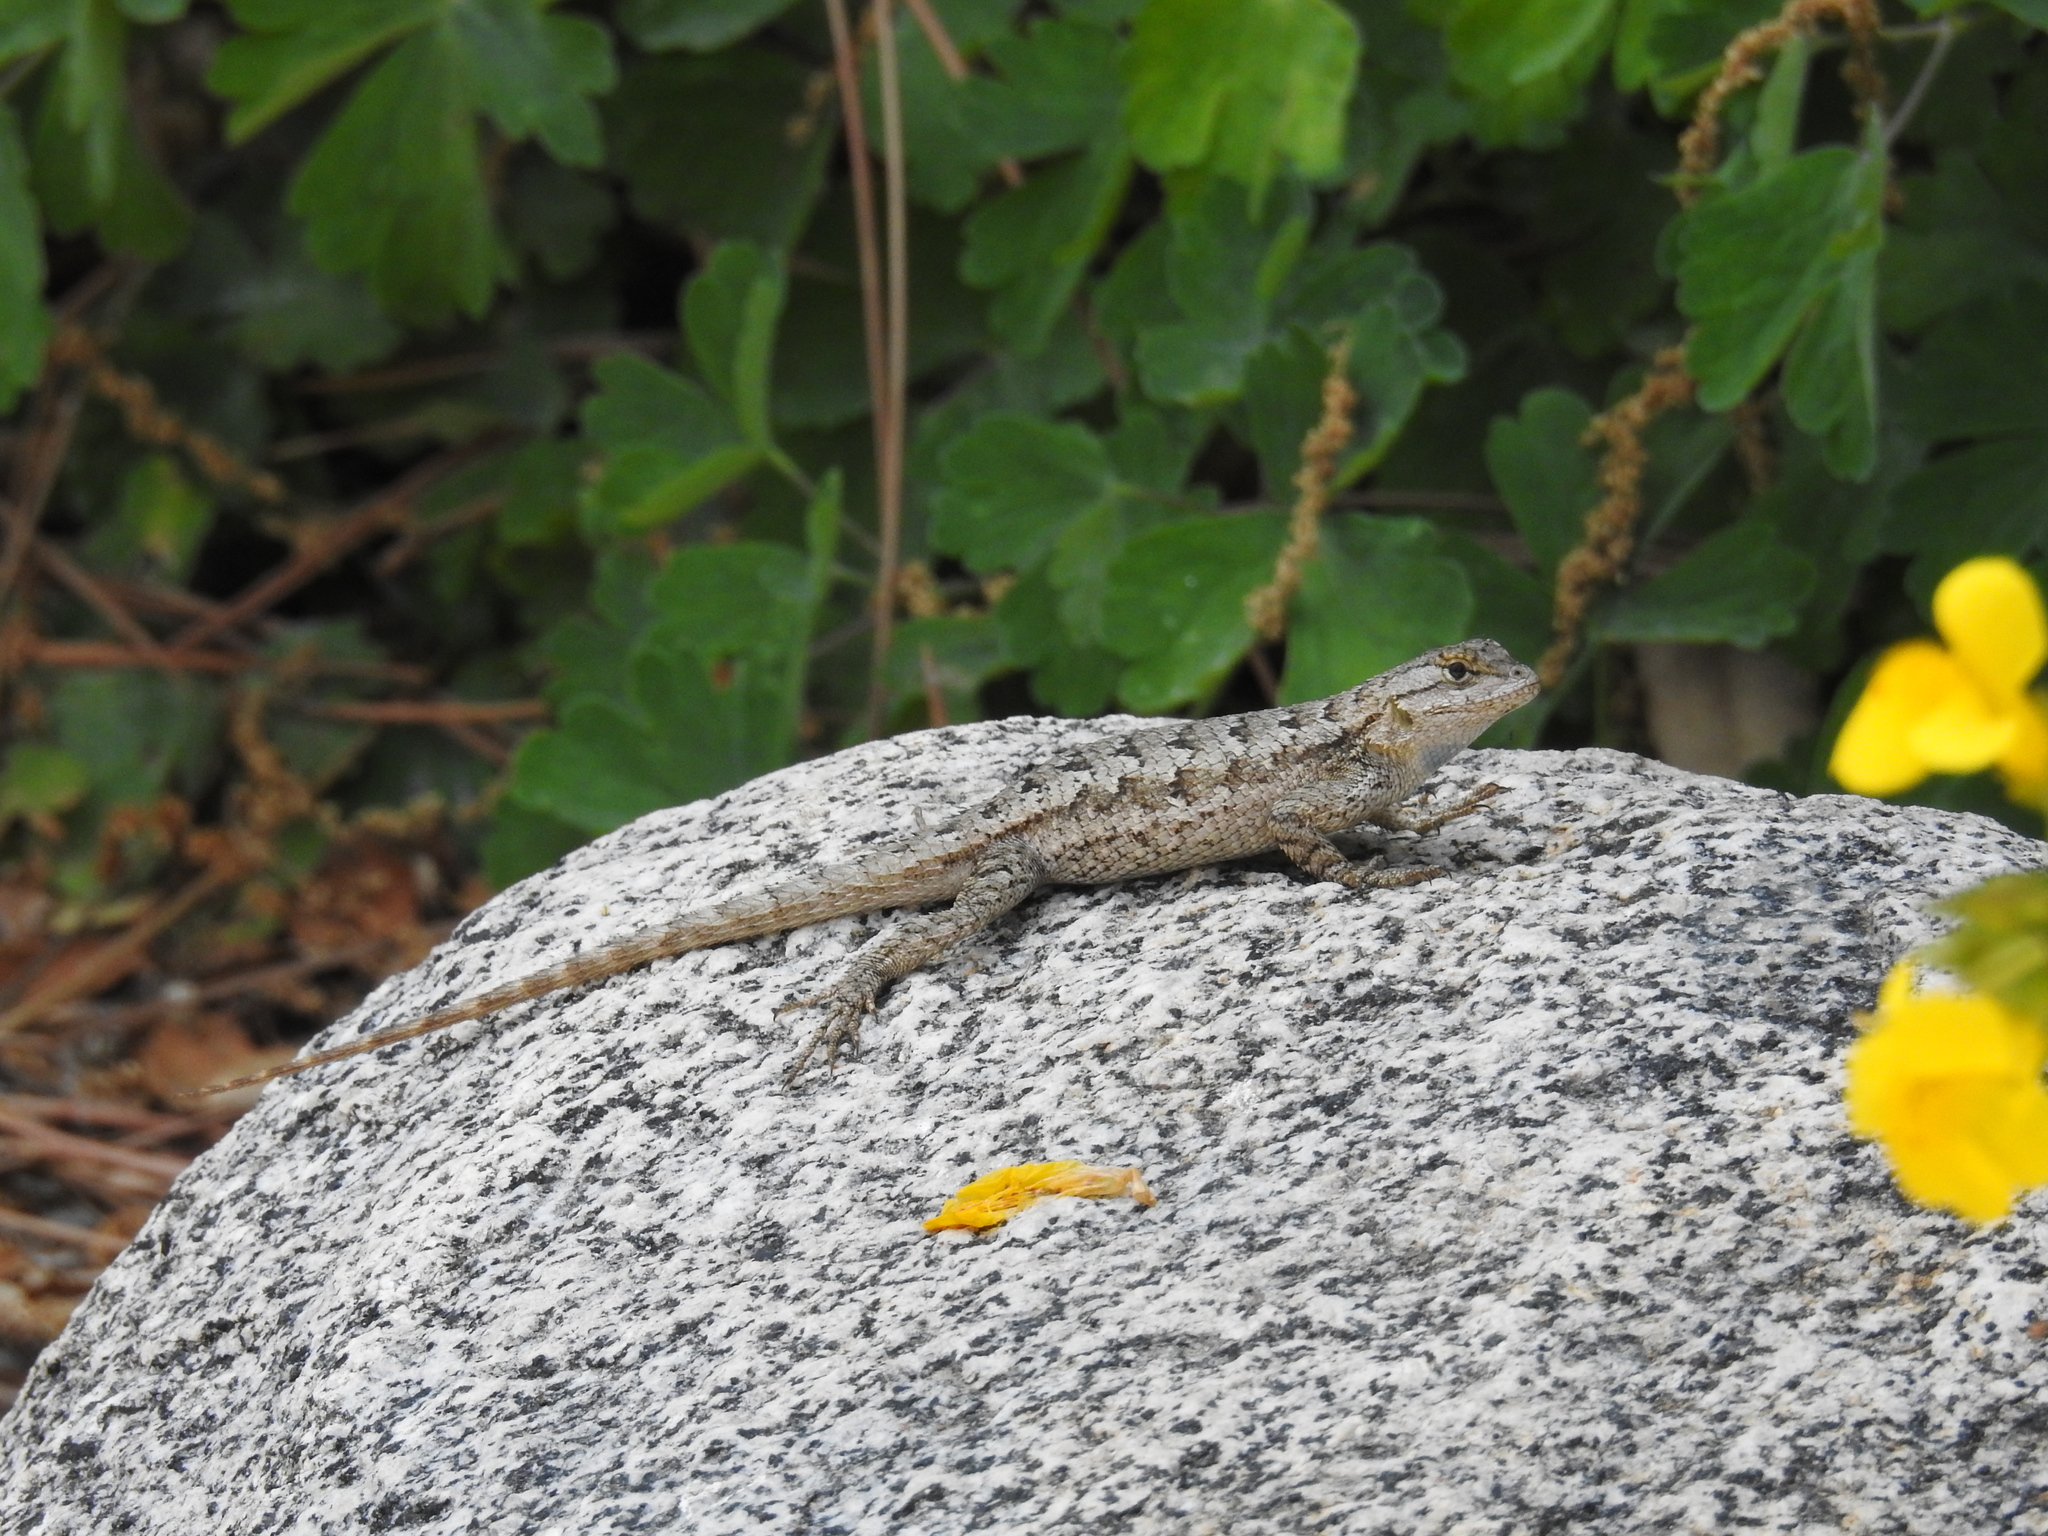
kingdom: Animalia
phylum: Chordata
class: Squamata
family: Phrynosomatidae
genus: Sceloporus
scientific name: Sceloporus occidentalis
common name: Western fence lizard
